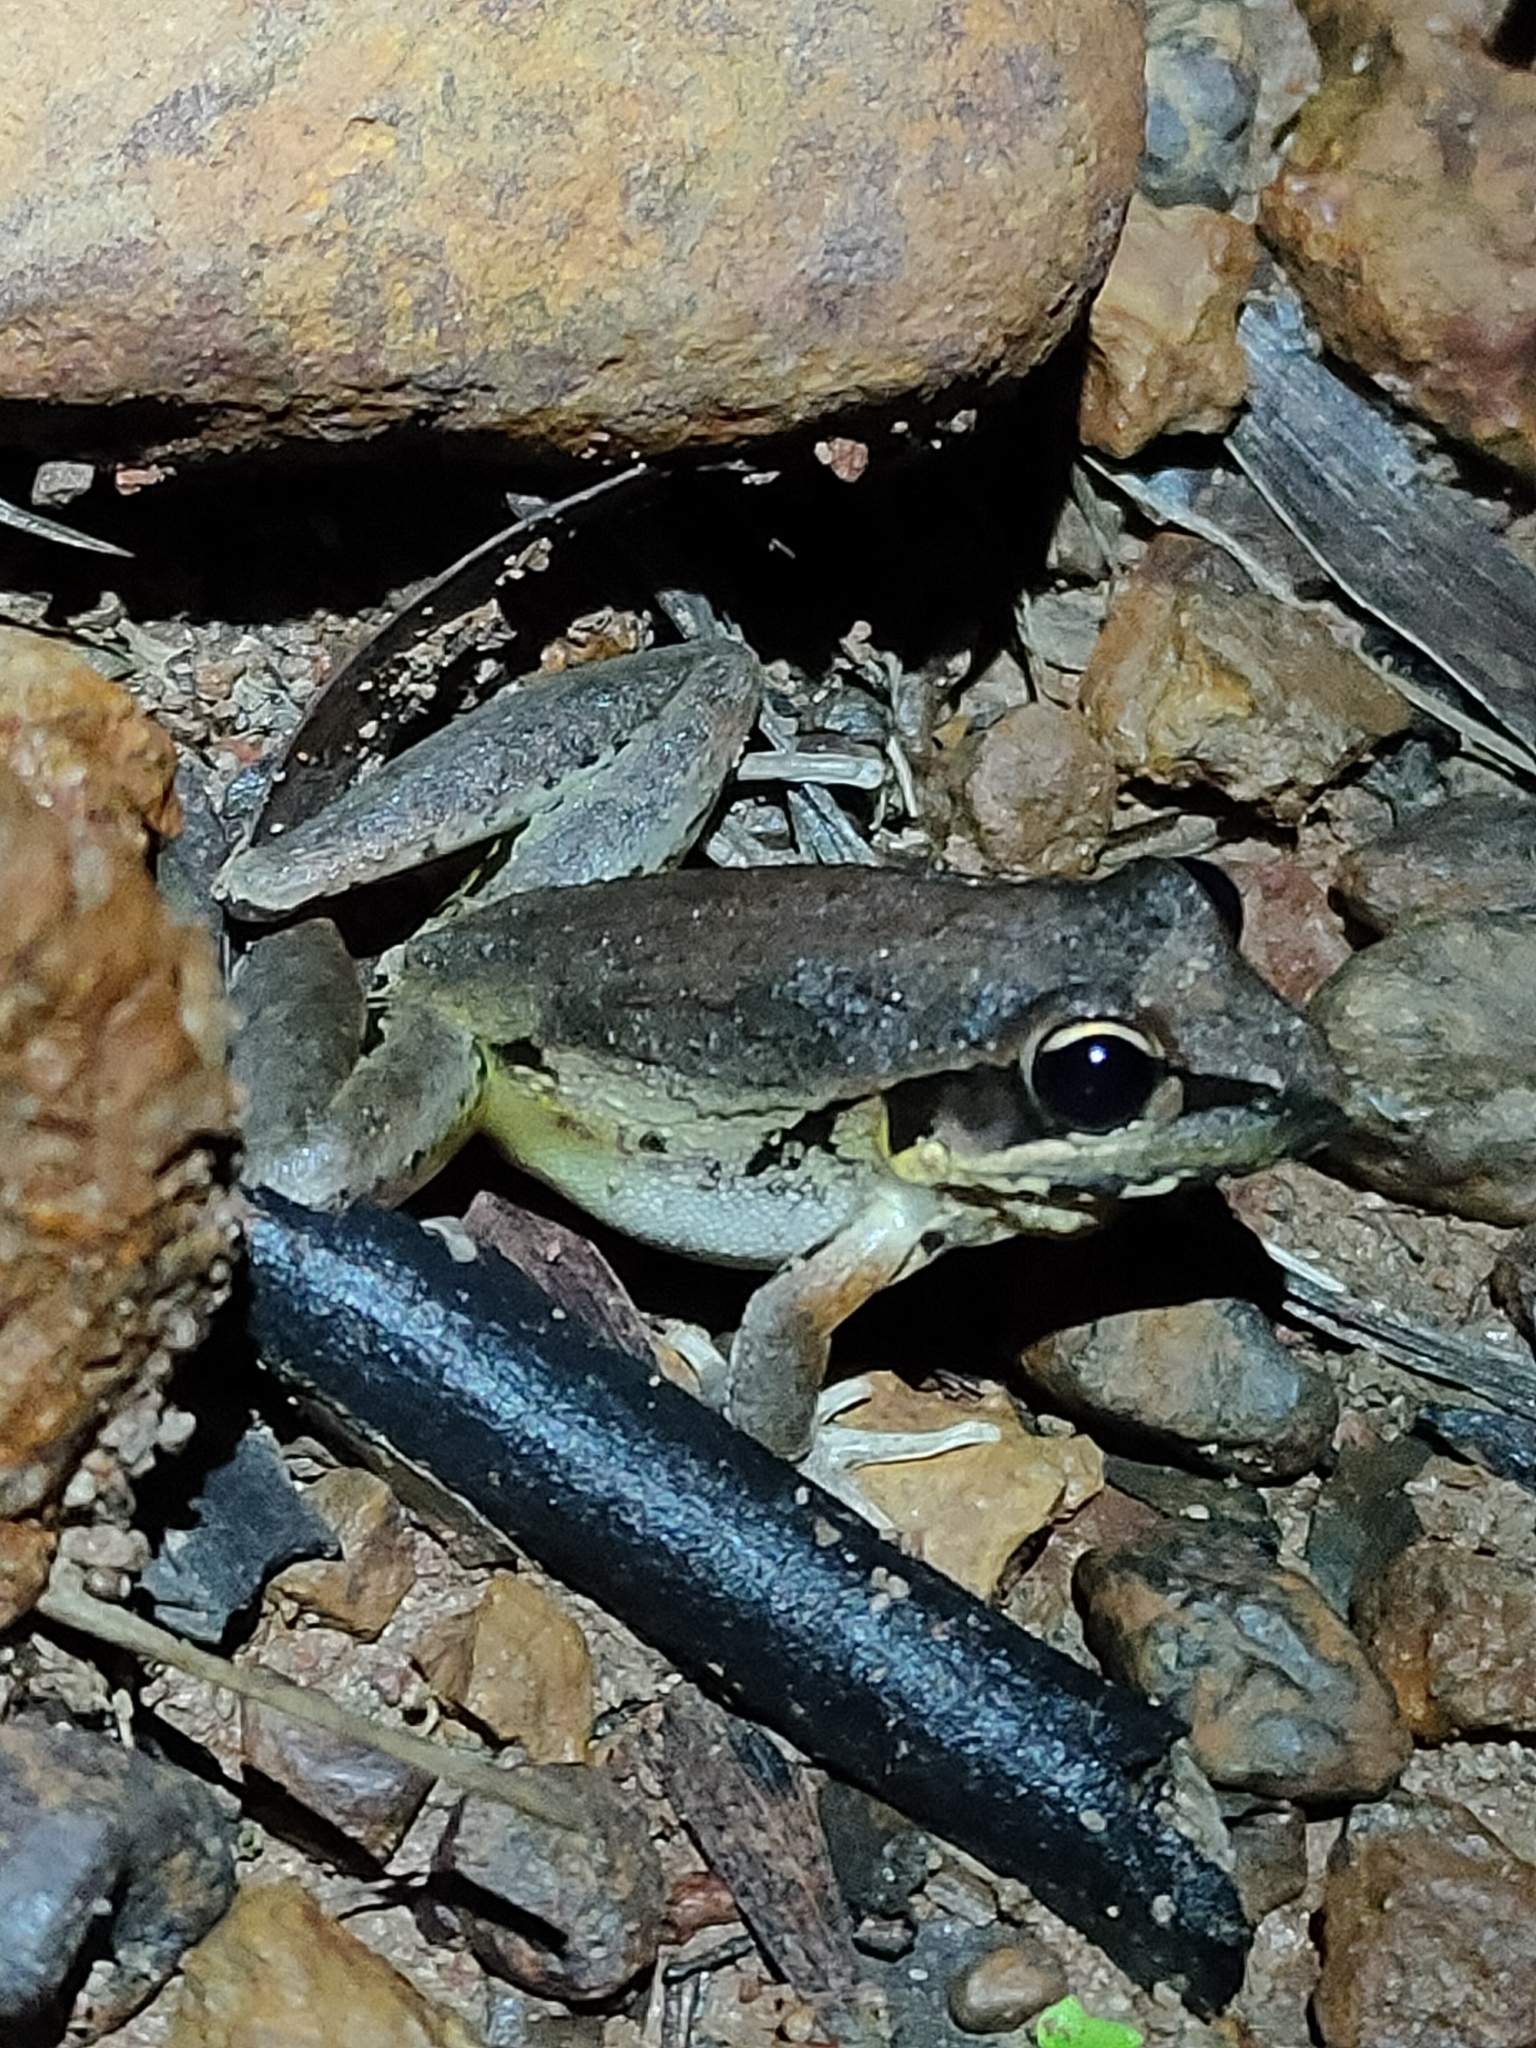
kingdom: Animalia
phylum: Chordata
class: Amphibia
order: Anura
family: Pelodryadidae
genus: Litoria
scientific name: Litoria latopalmata
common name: Broad-palmed rocket frog
